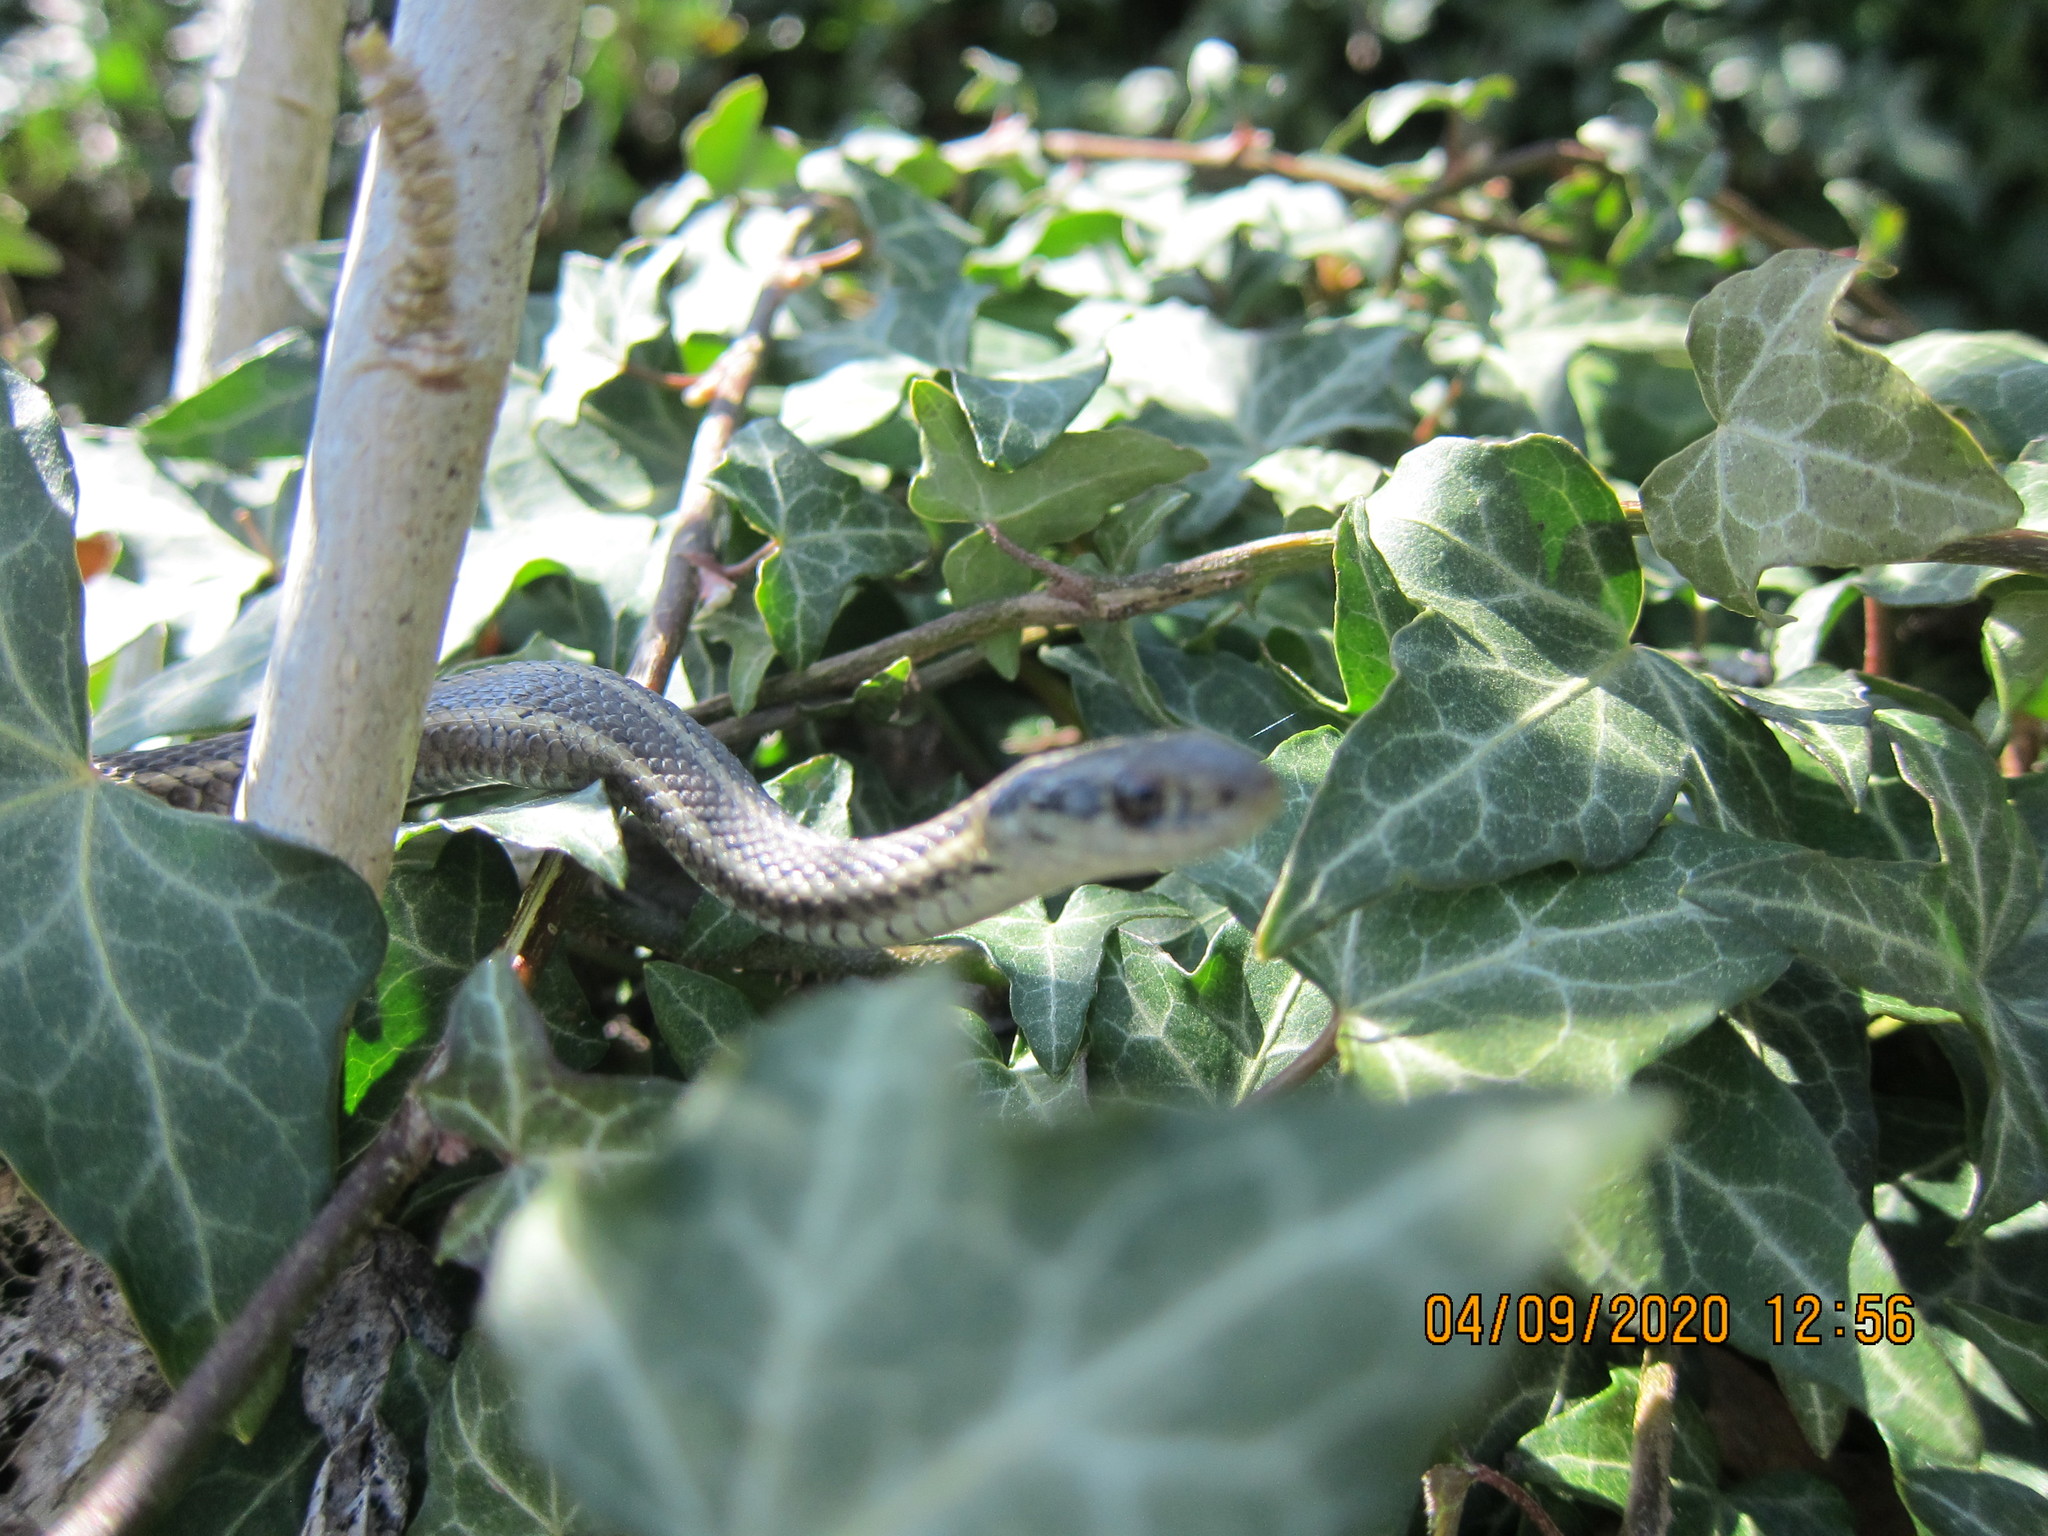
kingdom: Animalia
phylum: Chordata
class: Squamata
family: Colubridae
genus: Thamnophis
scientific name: Thamnophis ordinoides
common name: Northwestern garter snake
